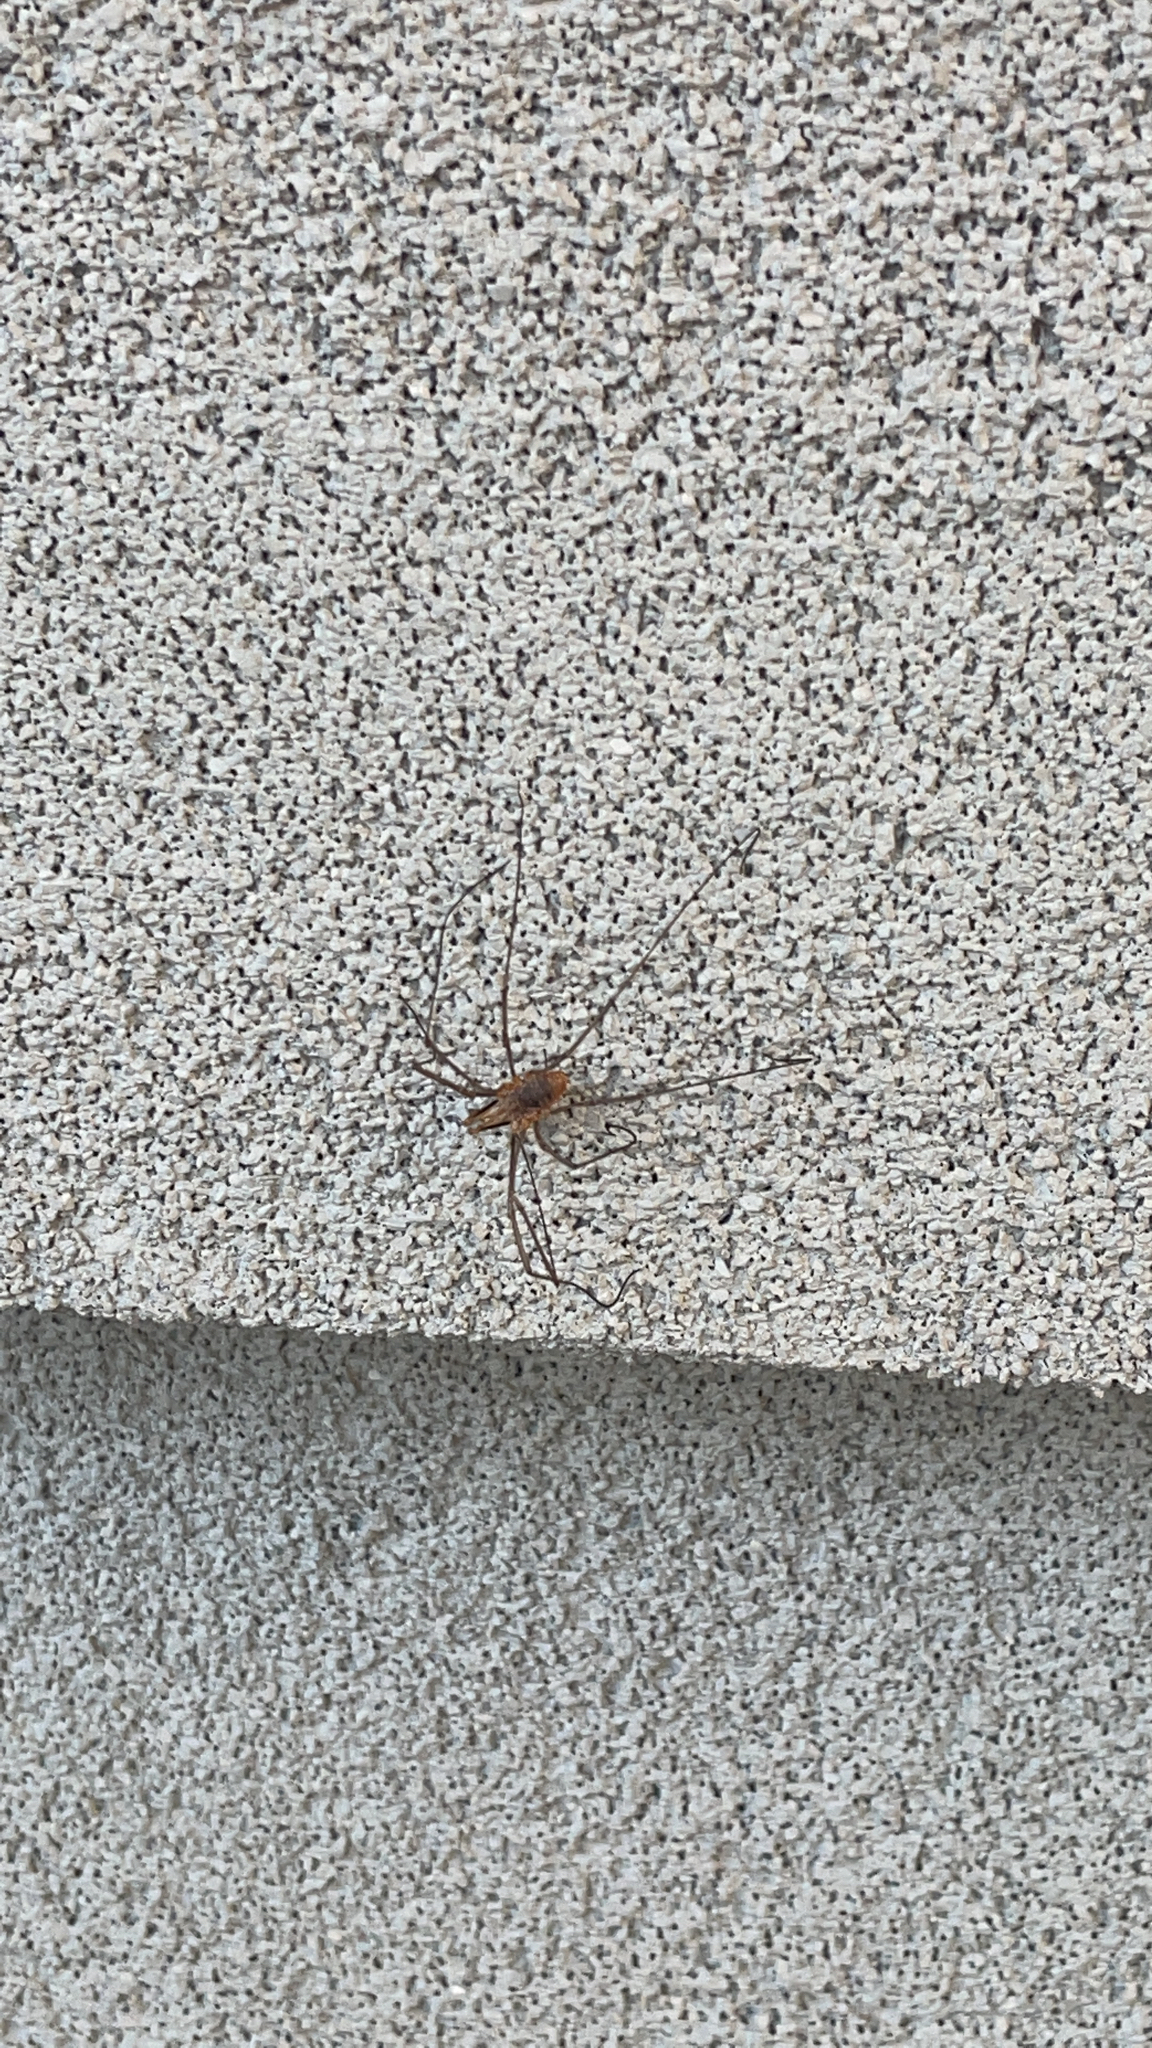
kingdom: Animalia
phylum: Arthropoda
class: Arachnida
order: Opiliones
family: Phalangiidae
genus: Phalangium
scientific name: Phalangium opilio
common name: Daddy longleg
